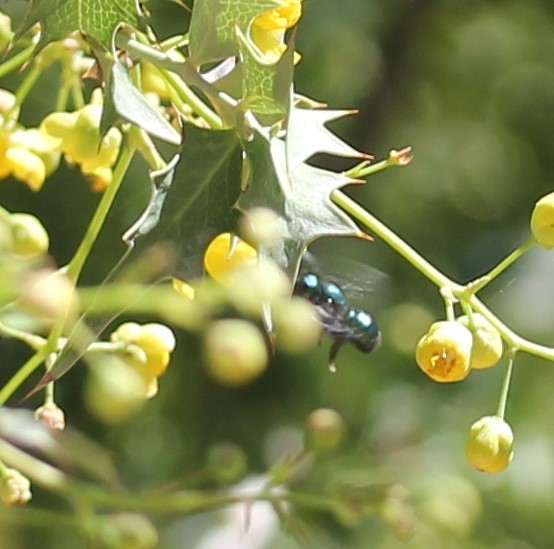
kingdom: Animalia
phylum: Arthropoda
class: Insecta
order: Hymenoptera
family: Megachilidae
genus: Osmia
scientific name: Osmia ribifloris
